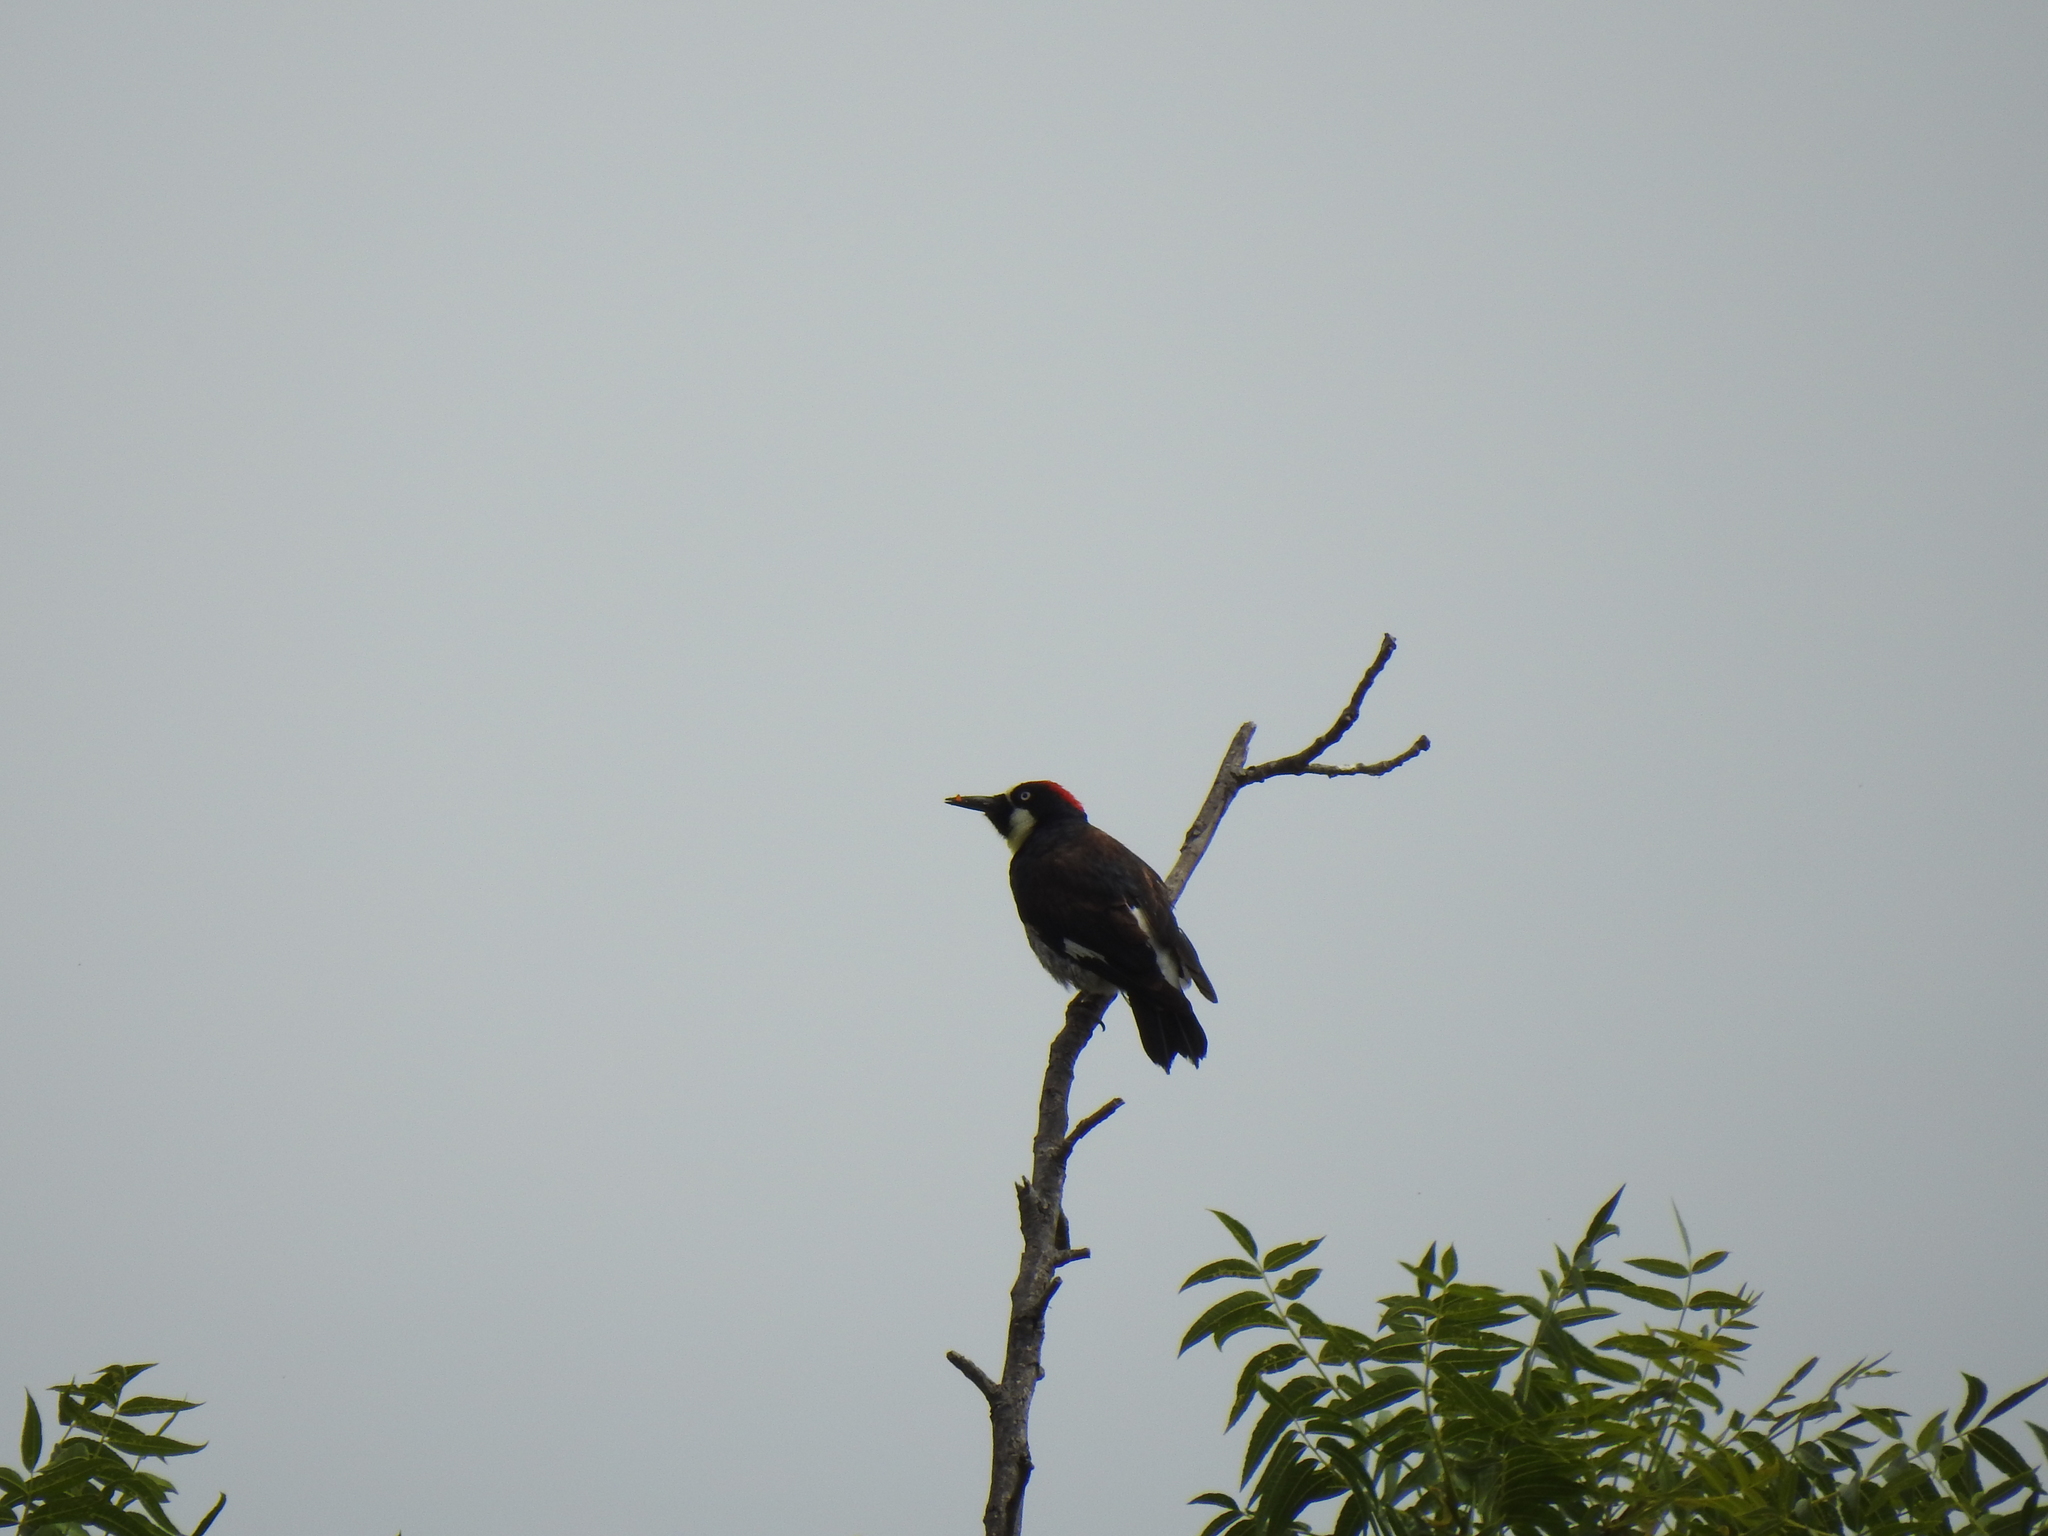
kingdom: Animalia
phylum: Chordata
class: Aves
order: Piciformes
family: Picidae
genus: Melanerpes
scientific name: Melanerpes formicivorus
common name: Acorn woodpecker
